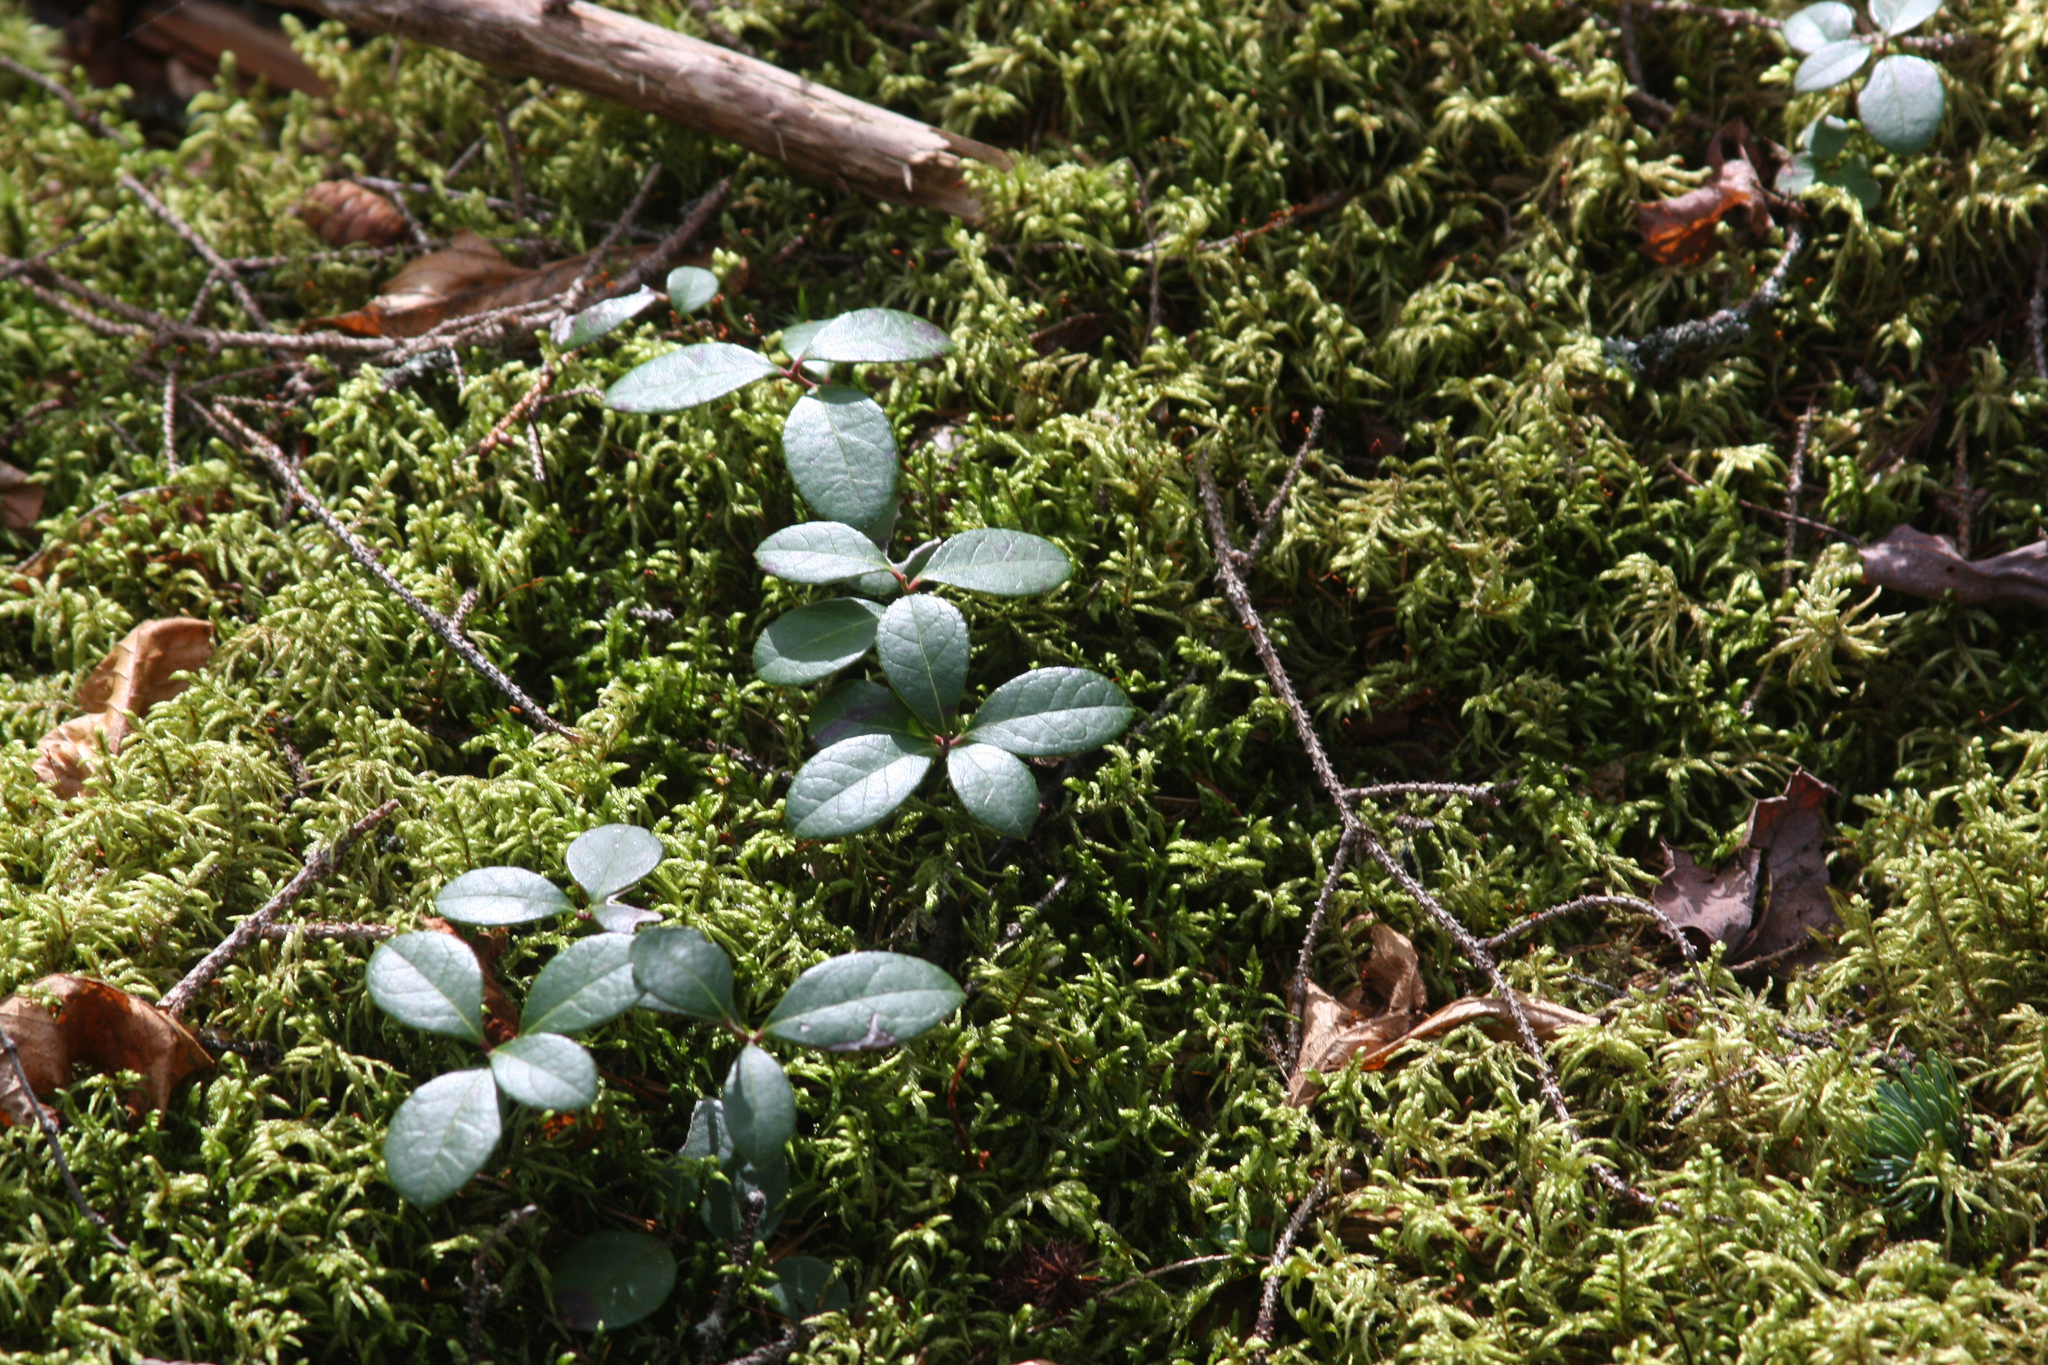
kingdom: Plantae
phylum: Tracheophyta
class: Magnoliopsida
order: Ericales
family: Ericaceae
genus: Gaultheria
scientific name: Gaultheria procumbens
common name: Checkerberry
